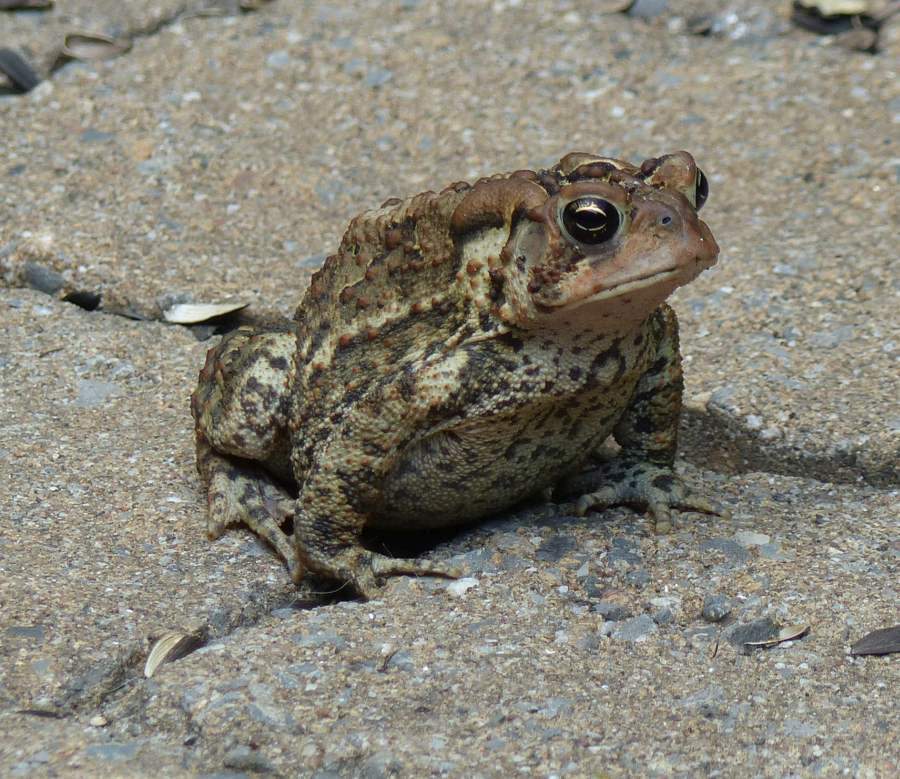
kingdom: Animalia
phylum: Chordata
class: Amphibia
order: Anura
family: Bufonidae
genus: Anaxyrus
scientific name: Anaxyrus americanus
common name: American toad
